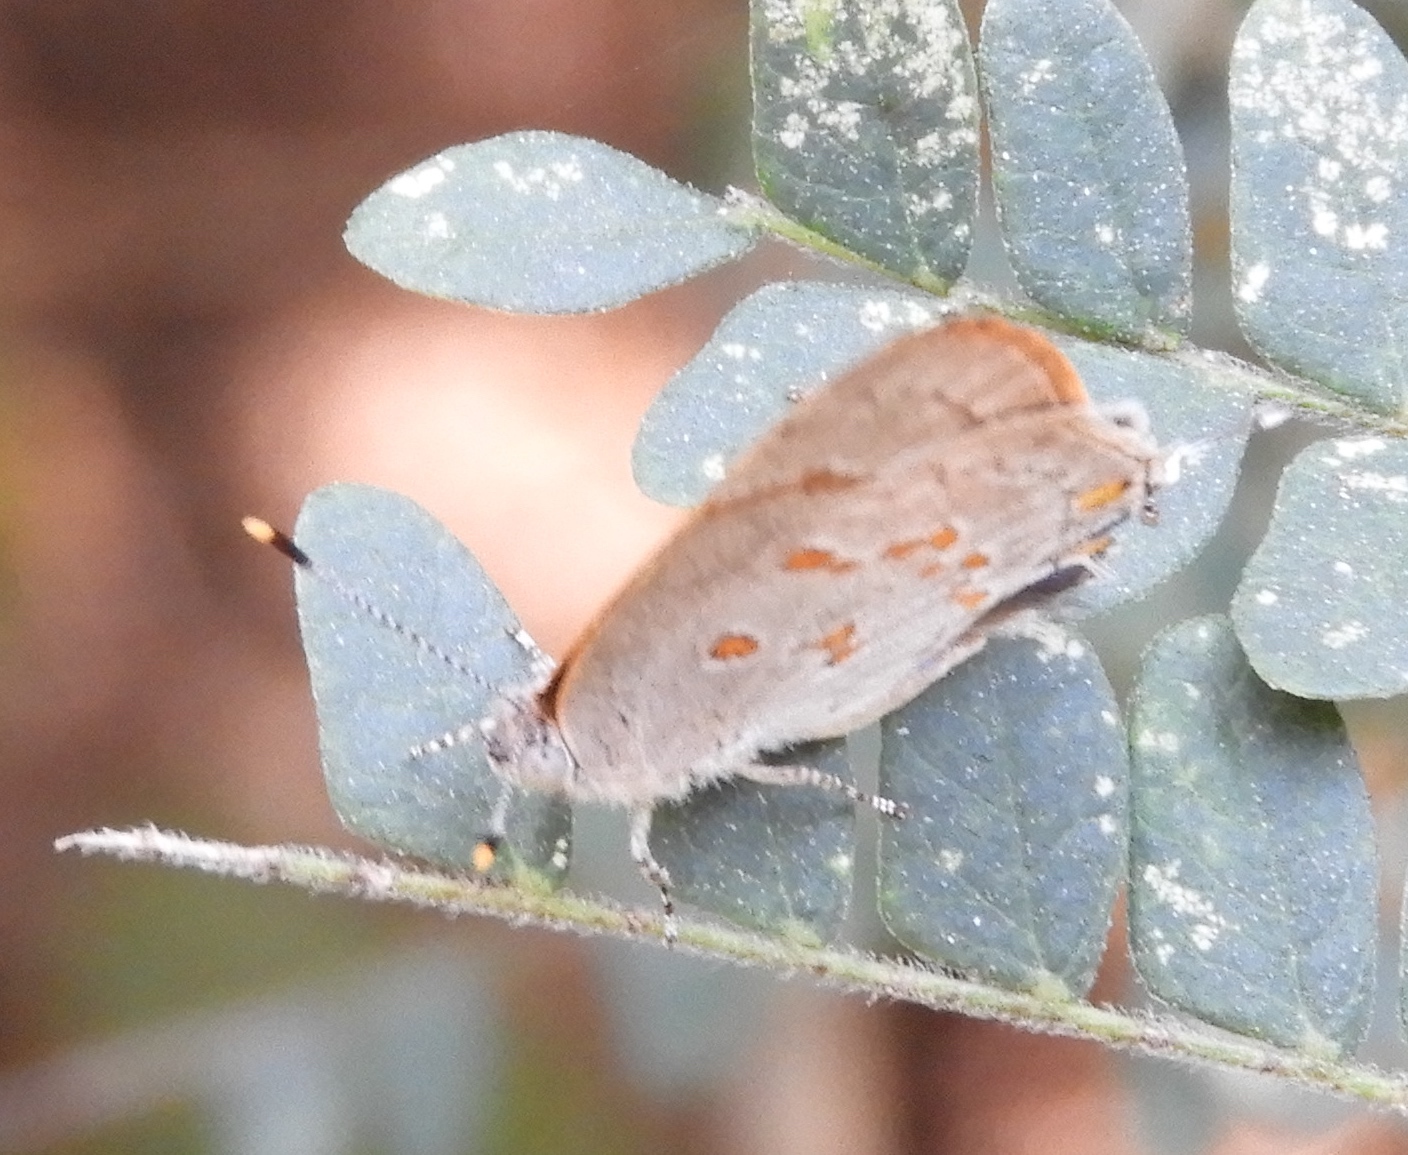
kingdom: Animalia
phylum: Arthropoda
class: Insecta
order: Lepidoptera
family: Lycaenidae
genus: Tmolus
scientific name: Tmolus echion
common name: Red-spotted hairstreak
